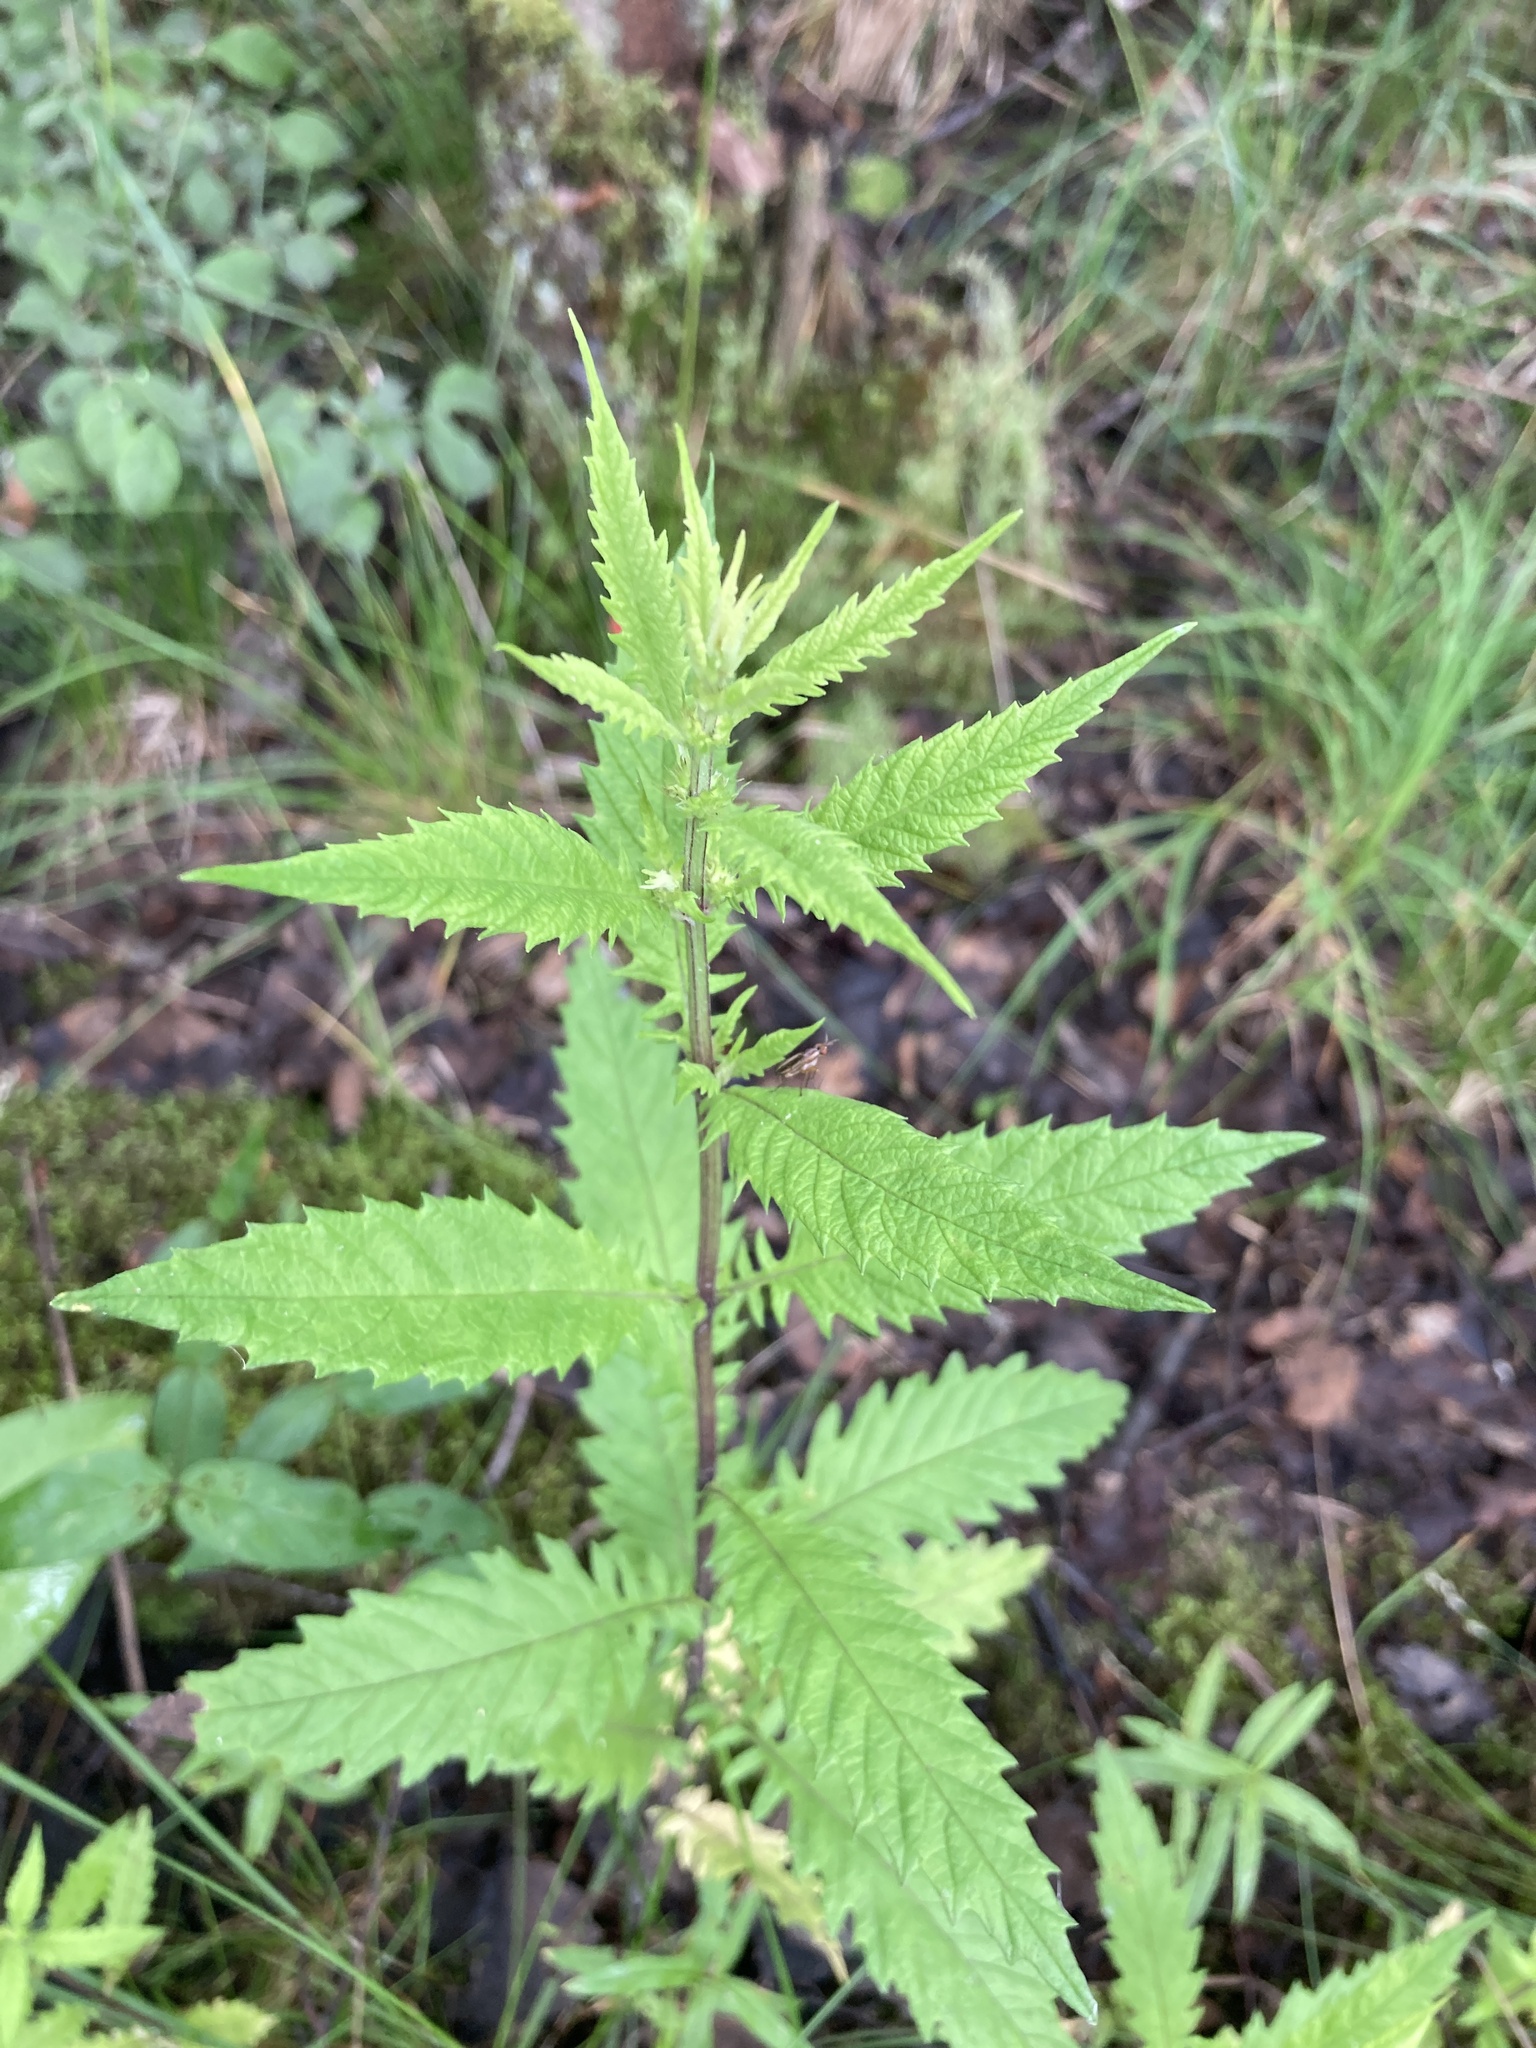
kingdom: Plantae
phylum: Tracheophyta
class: Magnoliopsida
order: Lamiales
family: Lamiaceae
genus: Lycopus
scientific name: Lycopus europaeus
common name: European bugleweed
